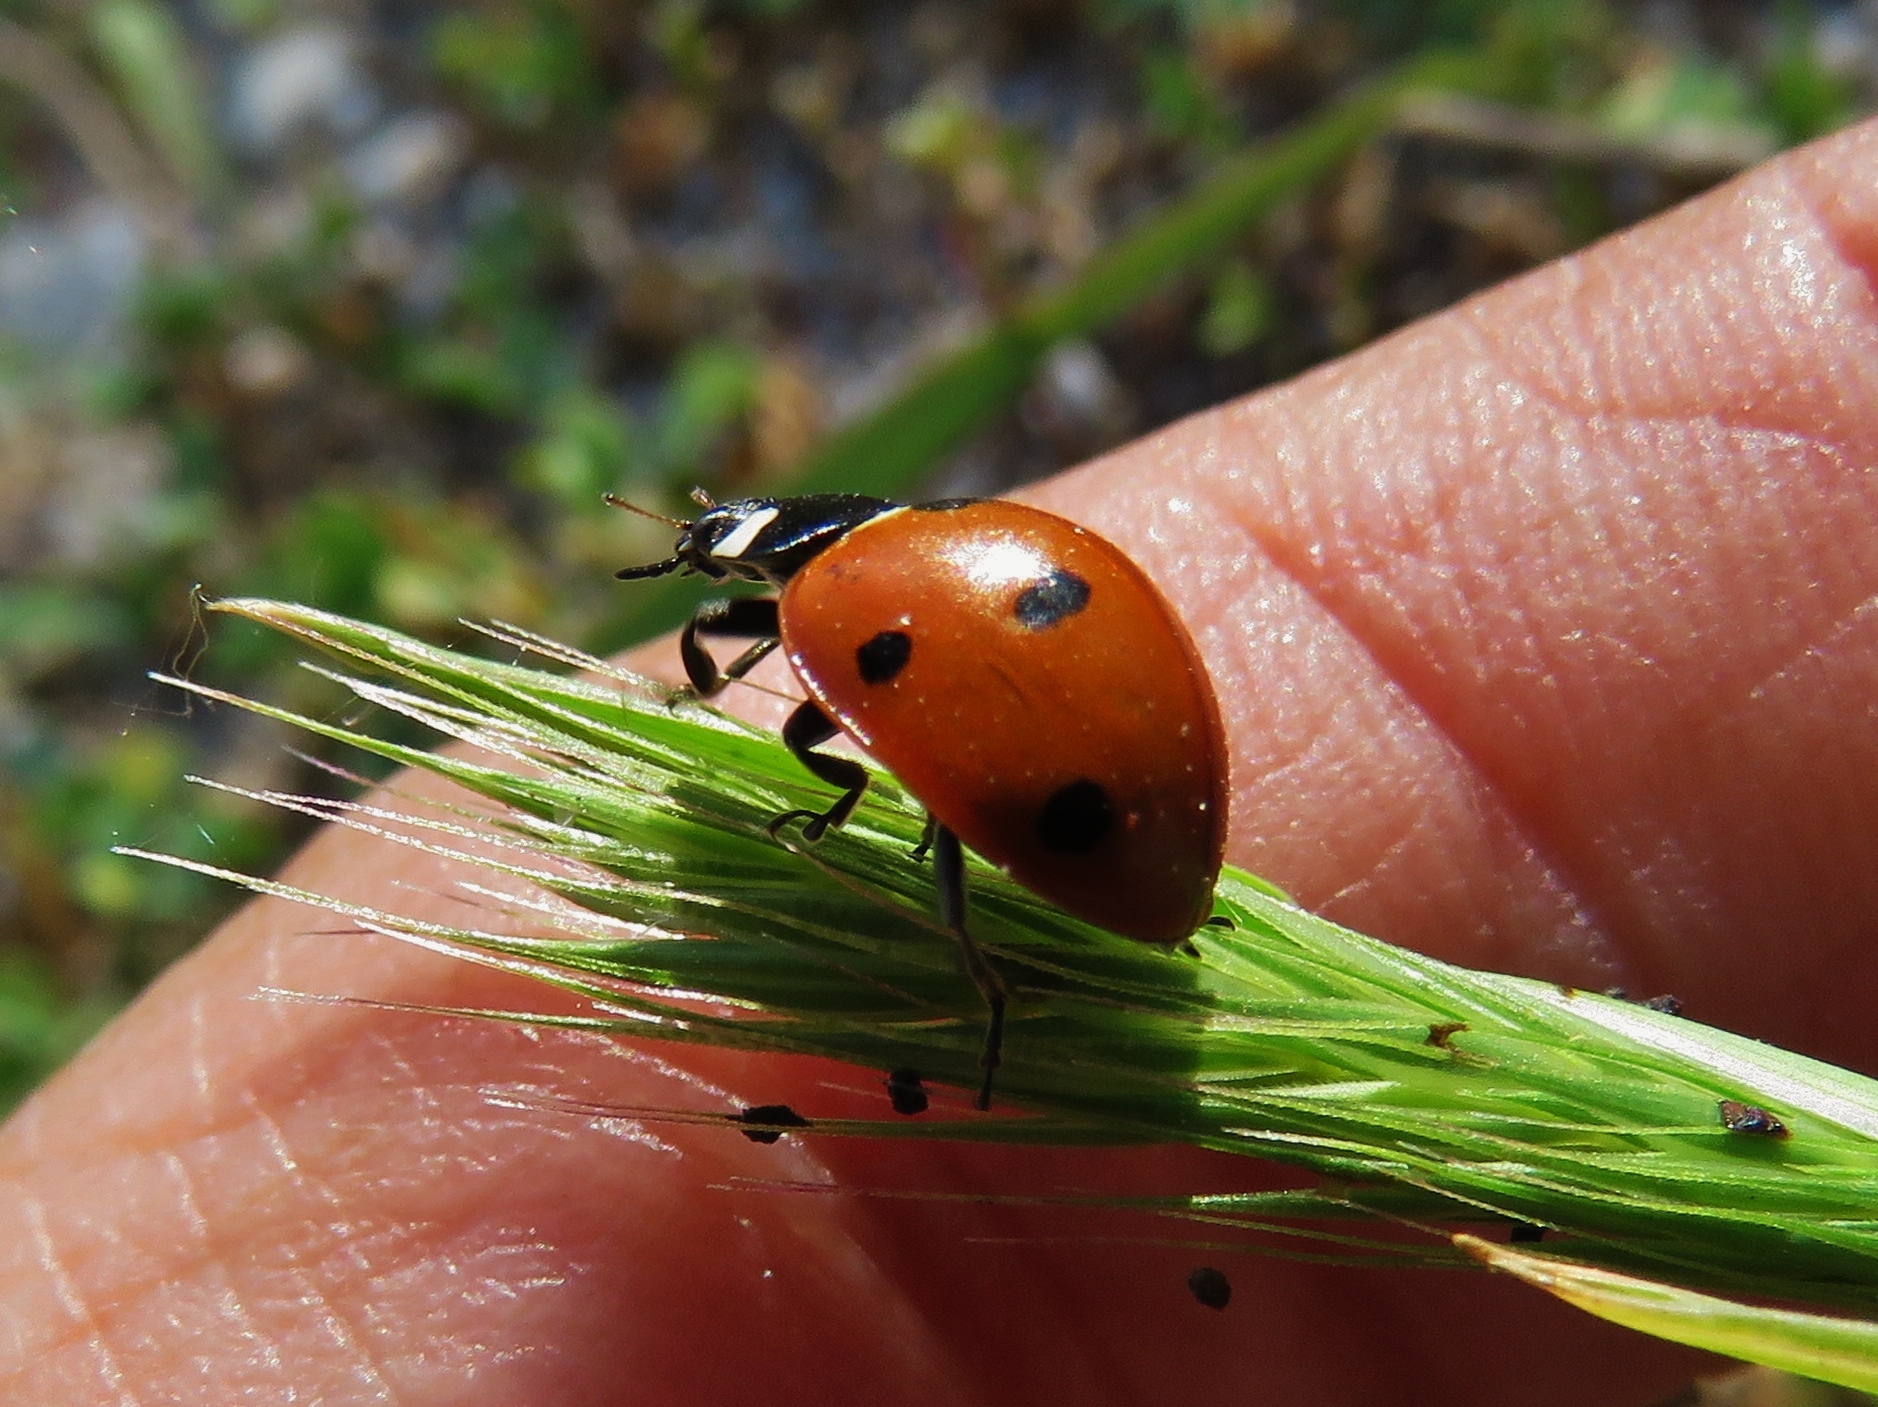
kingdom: Animalia
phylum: Arthropoda
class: Insecta
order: Coleoptera
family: Coccinellidae
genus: Coccinella
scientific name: Coccinella septempunctata
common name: Sevenspotted lady beetle
